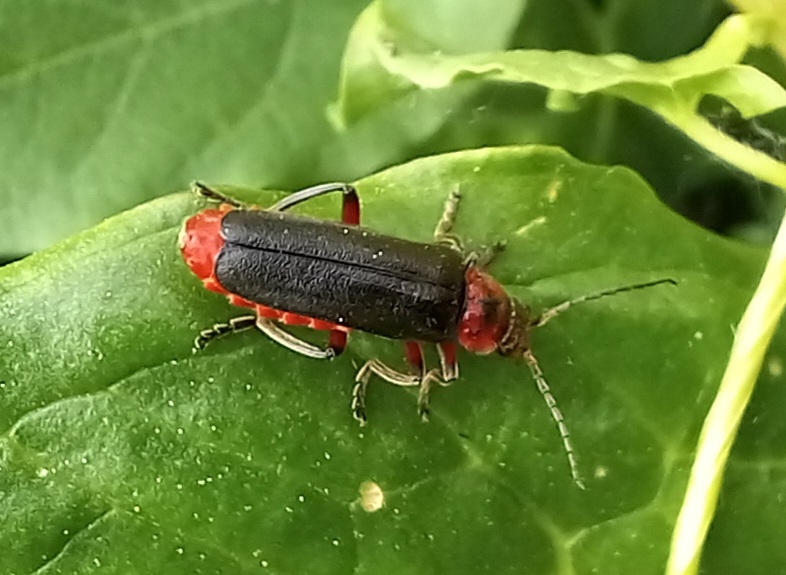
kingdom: Animalia
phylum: Arthropoda
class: Insecta
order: Coleoptera
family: Cantharidae
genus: Cantharis
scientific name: Cantharis rustica
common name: Soldier beetle
